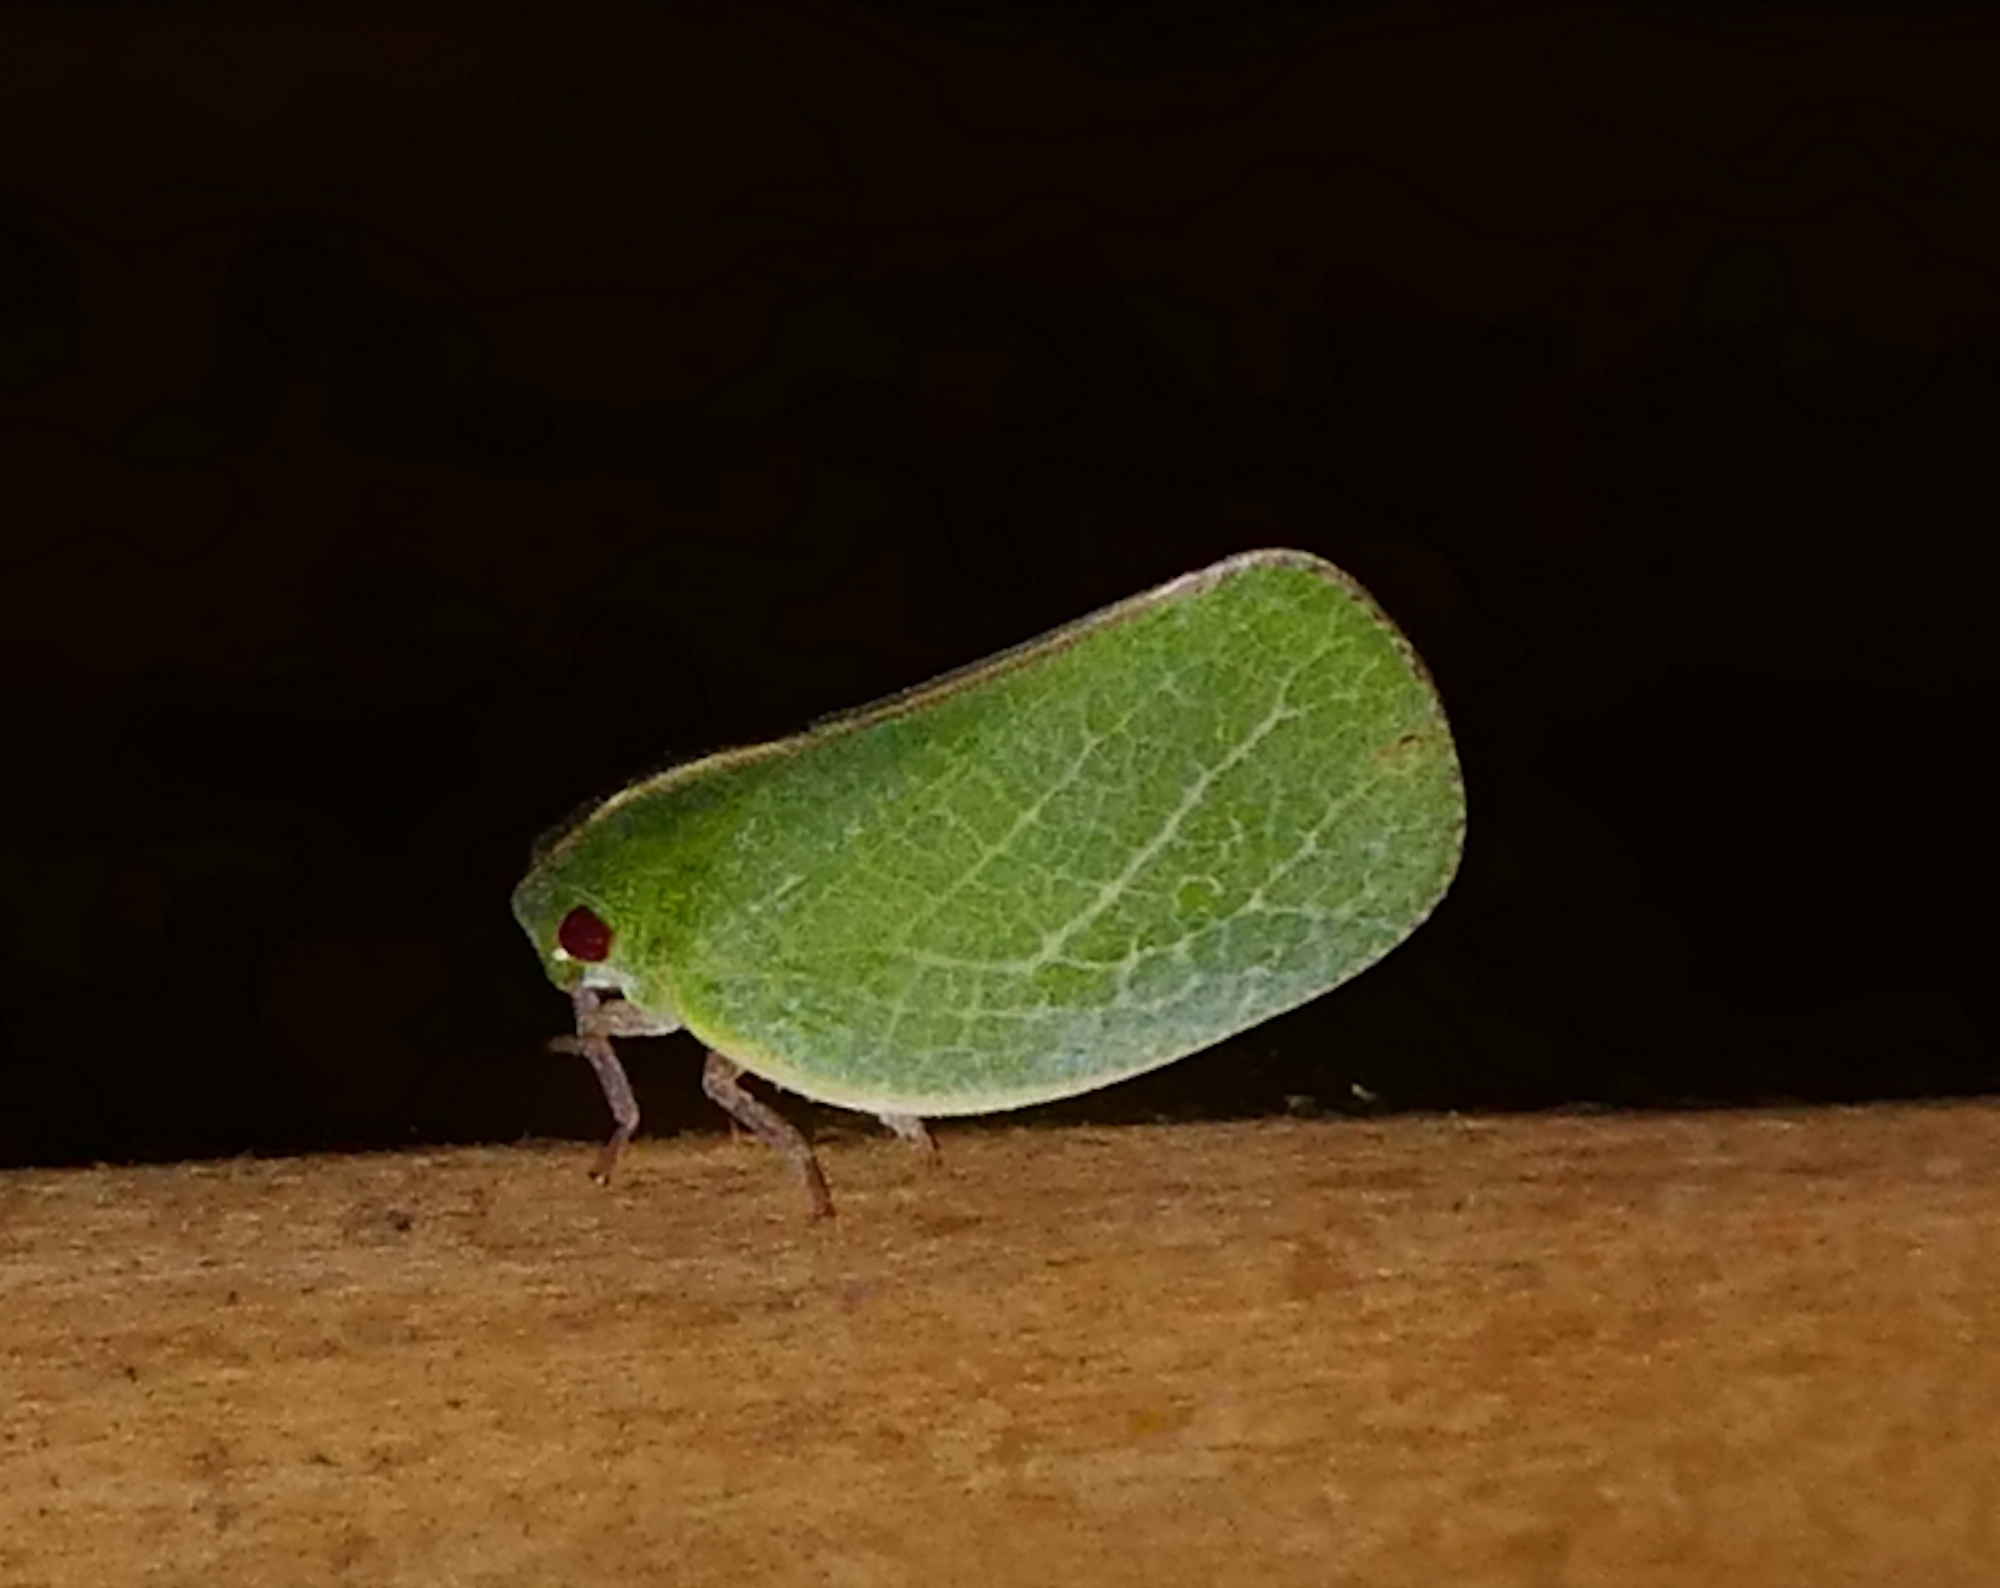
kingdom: Animalia
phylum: Arthropoda
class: Insecta
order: Hemiptera
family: Acanaloniidae
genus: Acanalonia
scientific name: Acanalonia servillei
